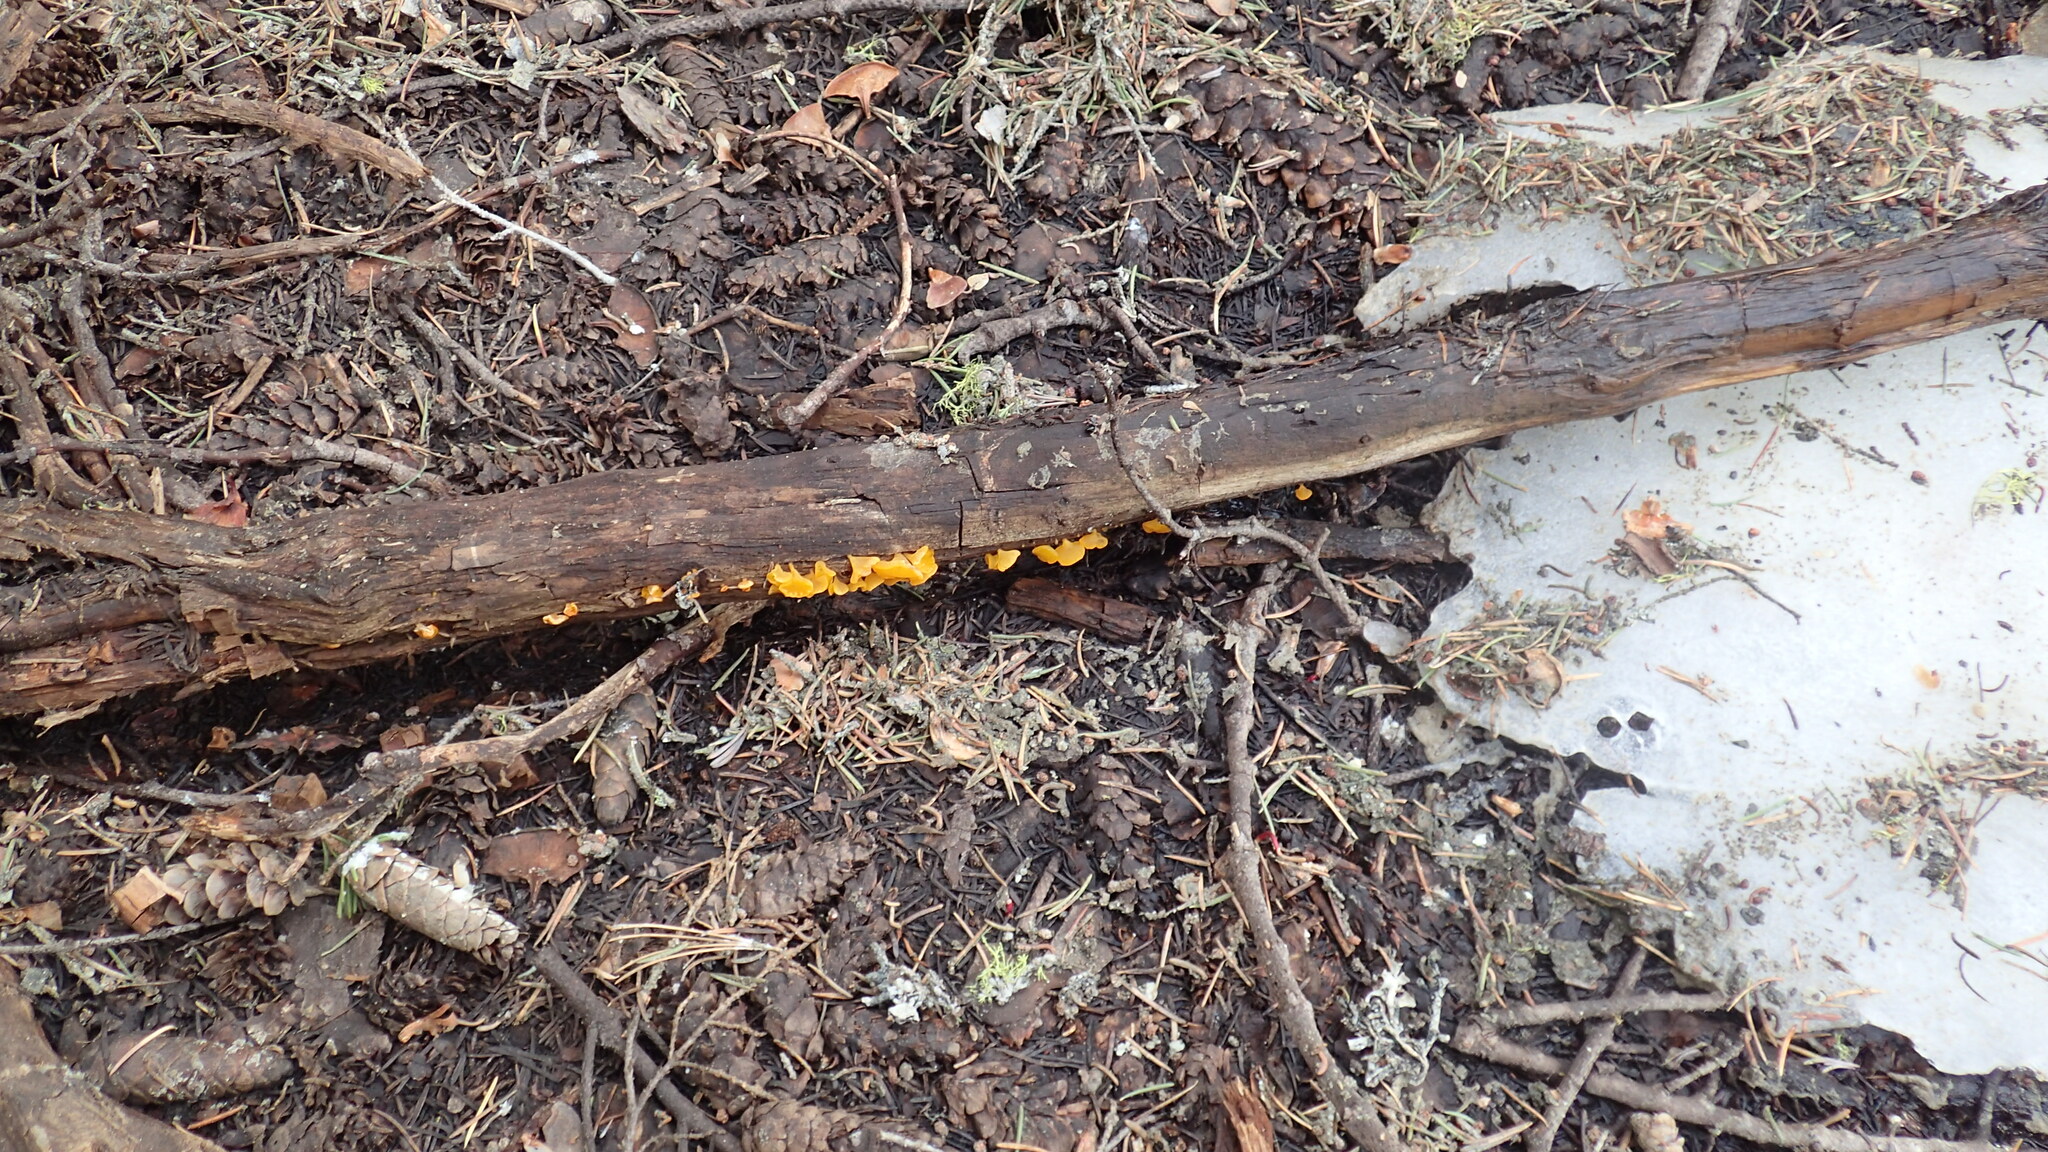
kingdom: Fungi
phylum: Basidiomycota
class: Dacrymycetes
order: Dacrymycetales
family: Dacrymycetaceae
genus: Guepiniopsis
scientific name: Guepiniopsis alpina
